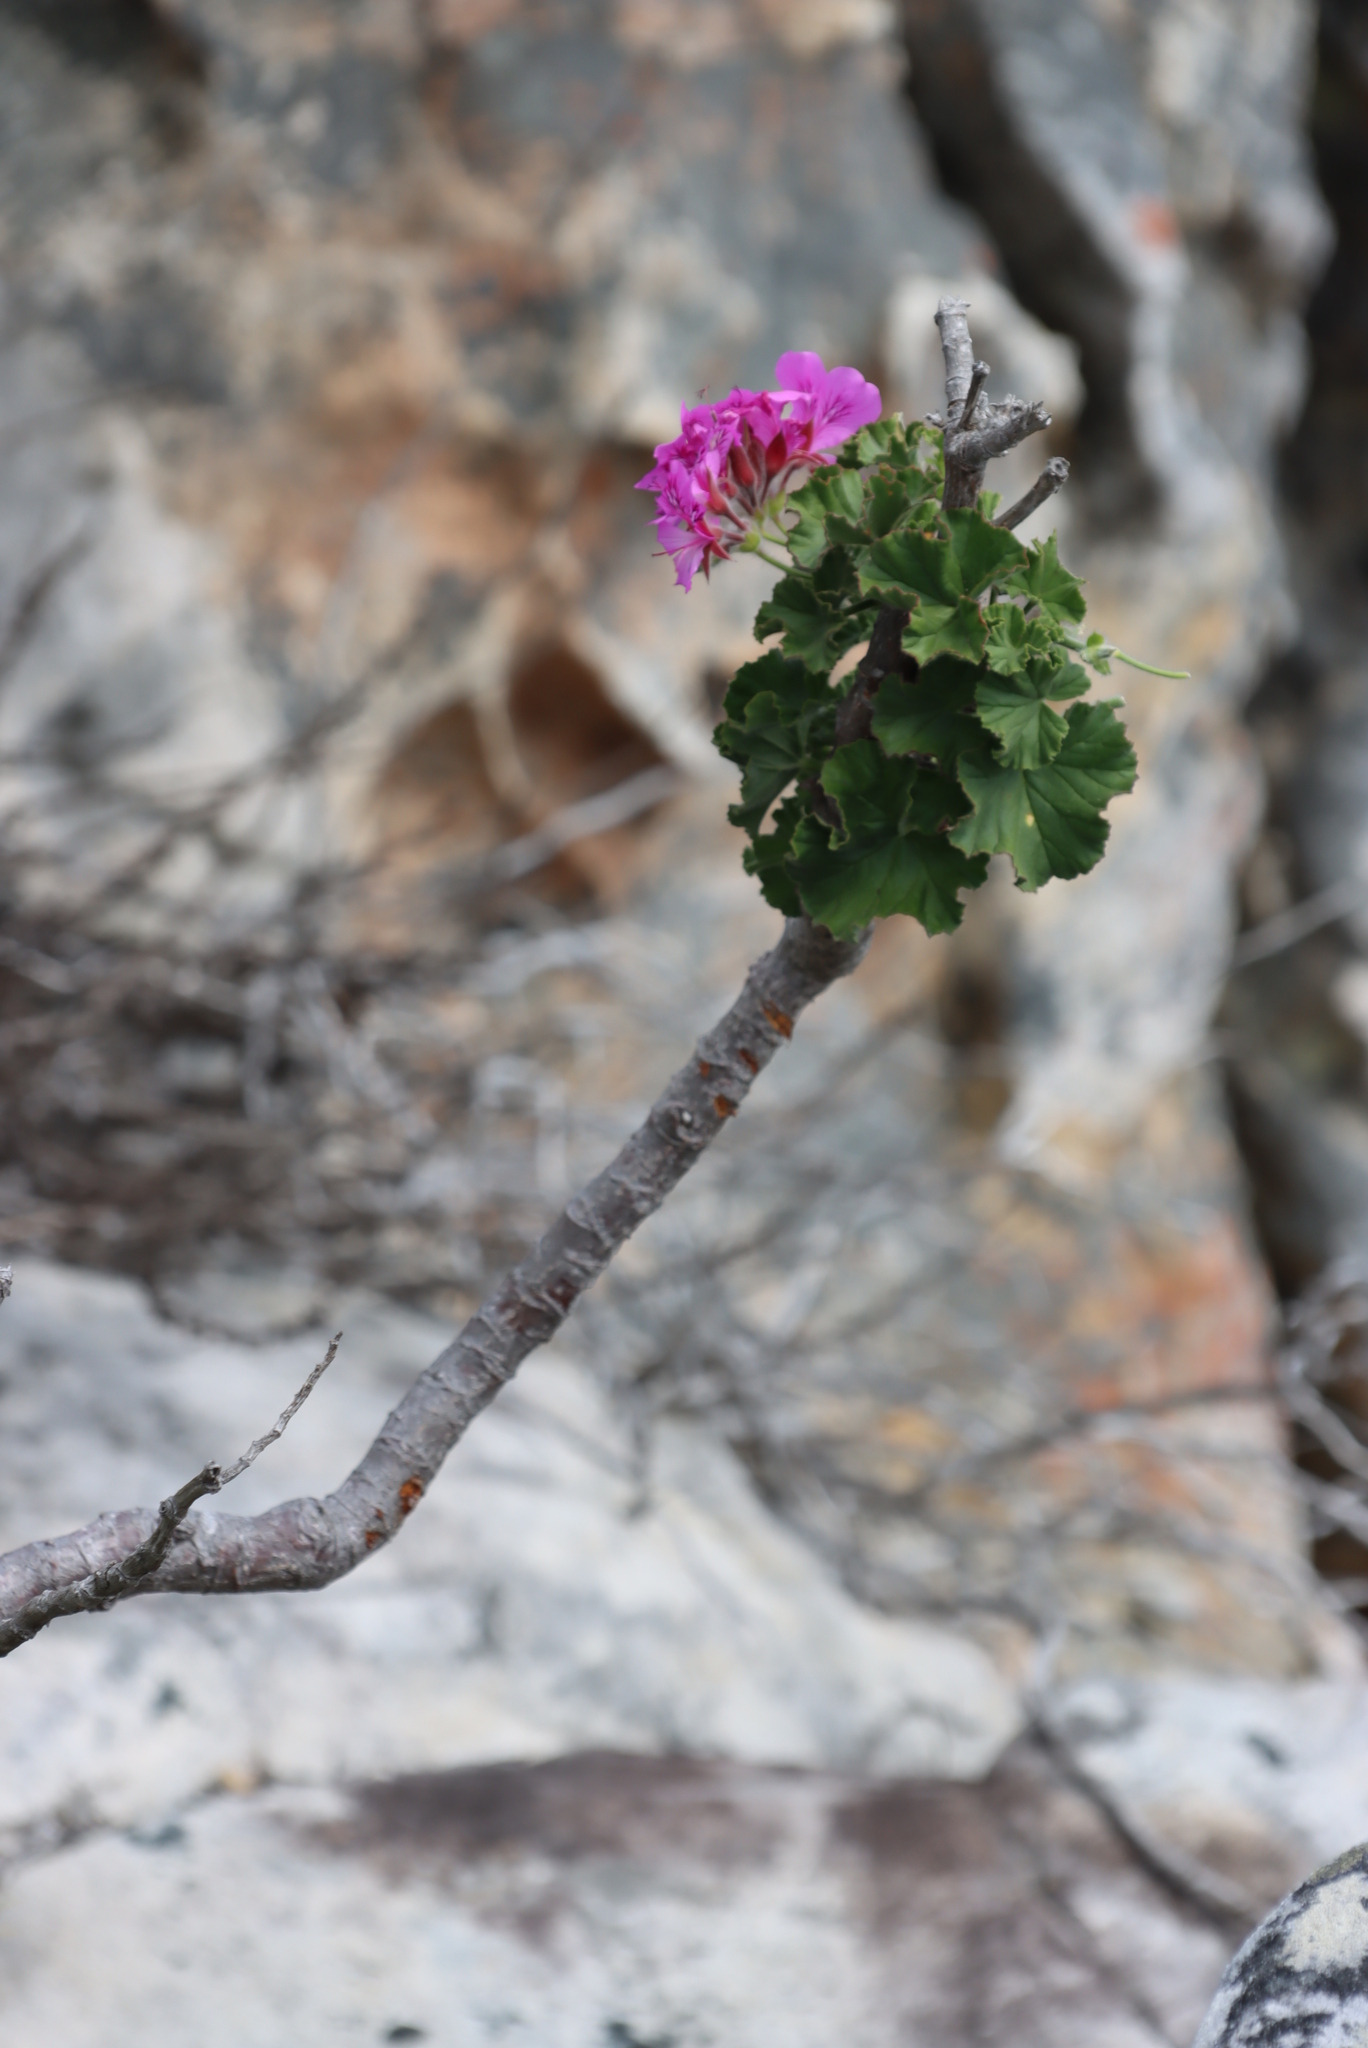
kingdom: Plantae
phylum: Tracheophyta
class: Magnoliopsida
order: Geraniales
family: Geraniaceae
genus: Pelargonium
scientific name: Pelargonium cucullatum
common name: Tree pelargonium
